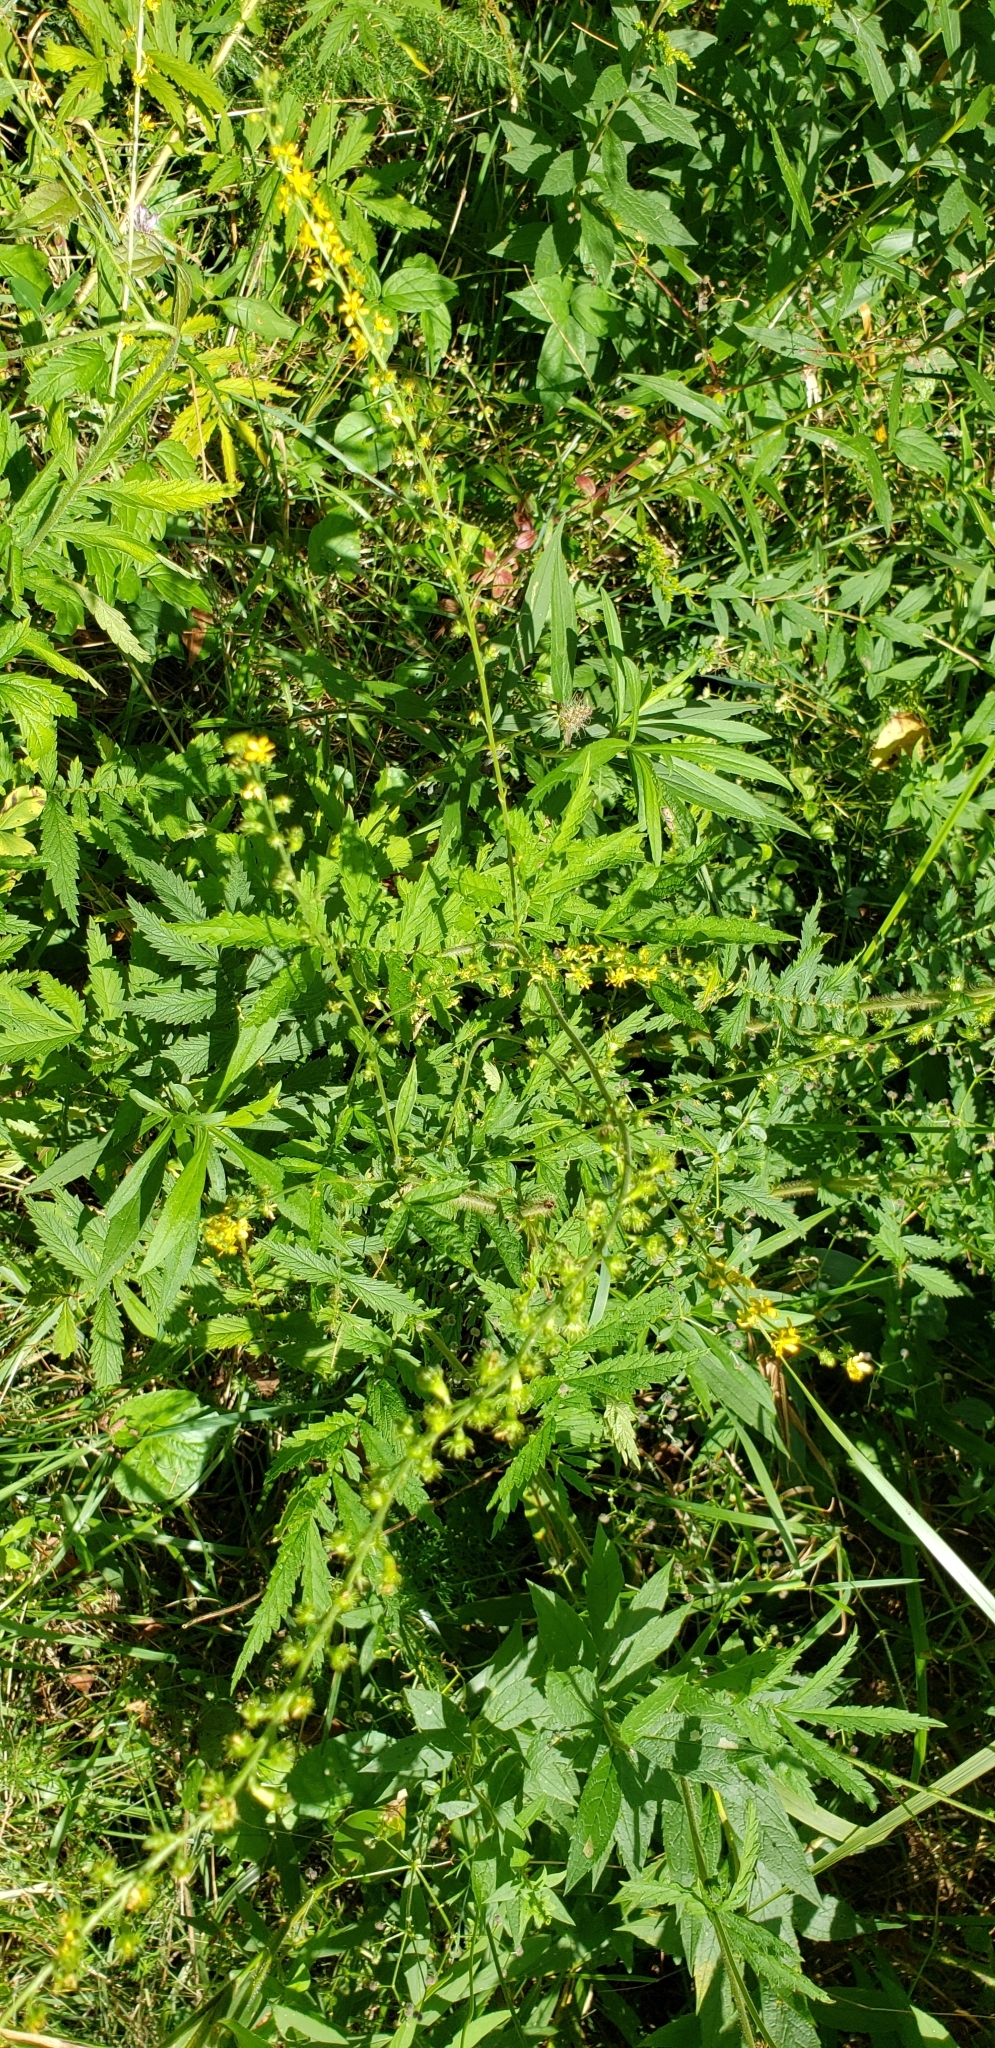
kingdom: Plantae
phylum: Tracheophyta
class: Magnoliopsida
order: Rosales
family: Rosaceae
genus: Agrimonia
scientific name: Agrimonia parviflora
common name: Harvest-lice
